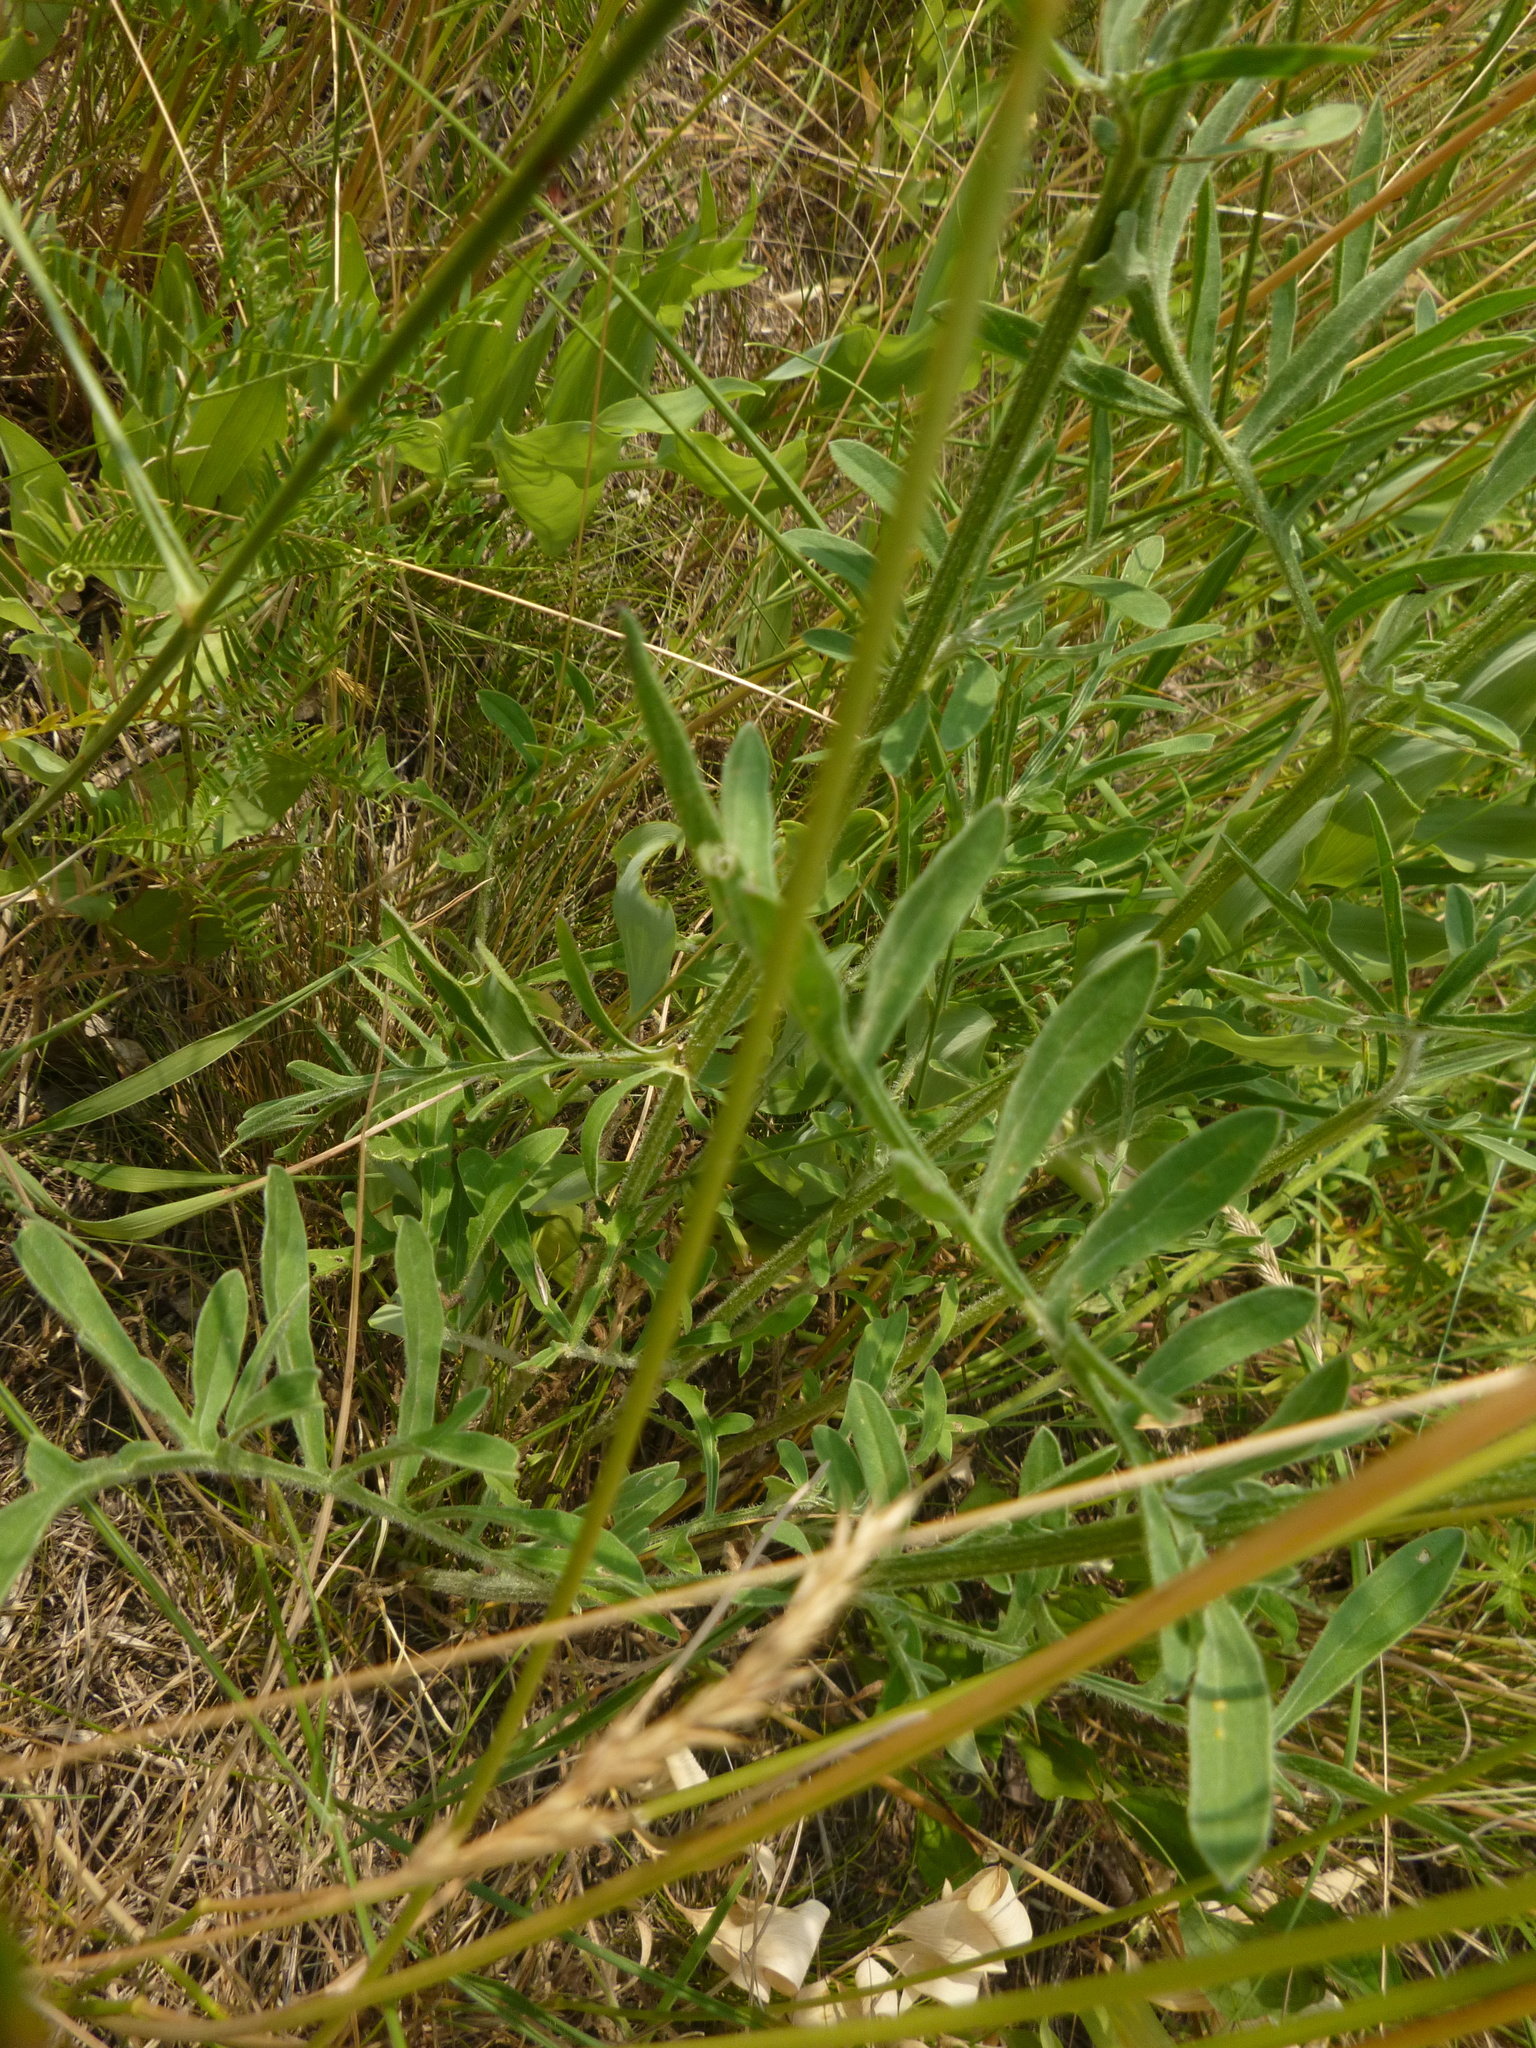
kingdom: Plantae
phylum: Tracheophyta
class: Magnoliopsida
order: Asterales
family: Asteraceae
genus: Centaurea
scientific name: Centaurea scabiosa
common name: Greater knapweed
